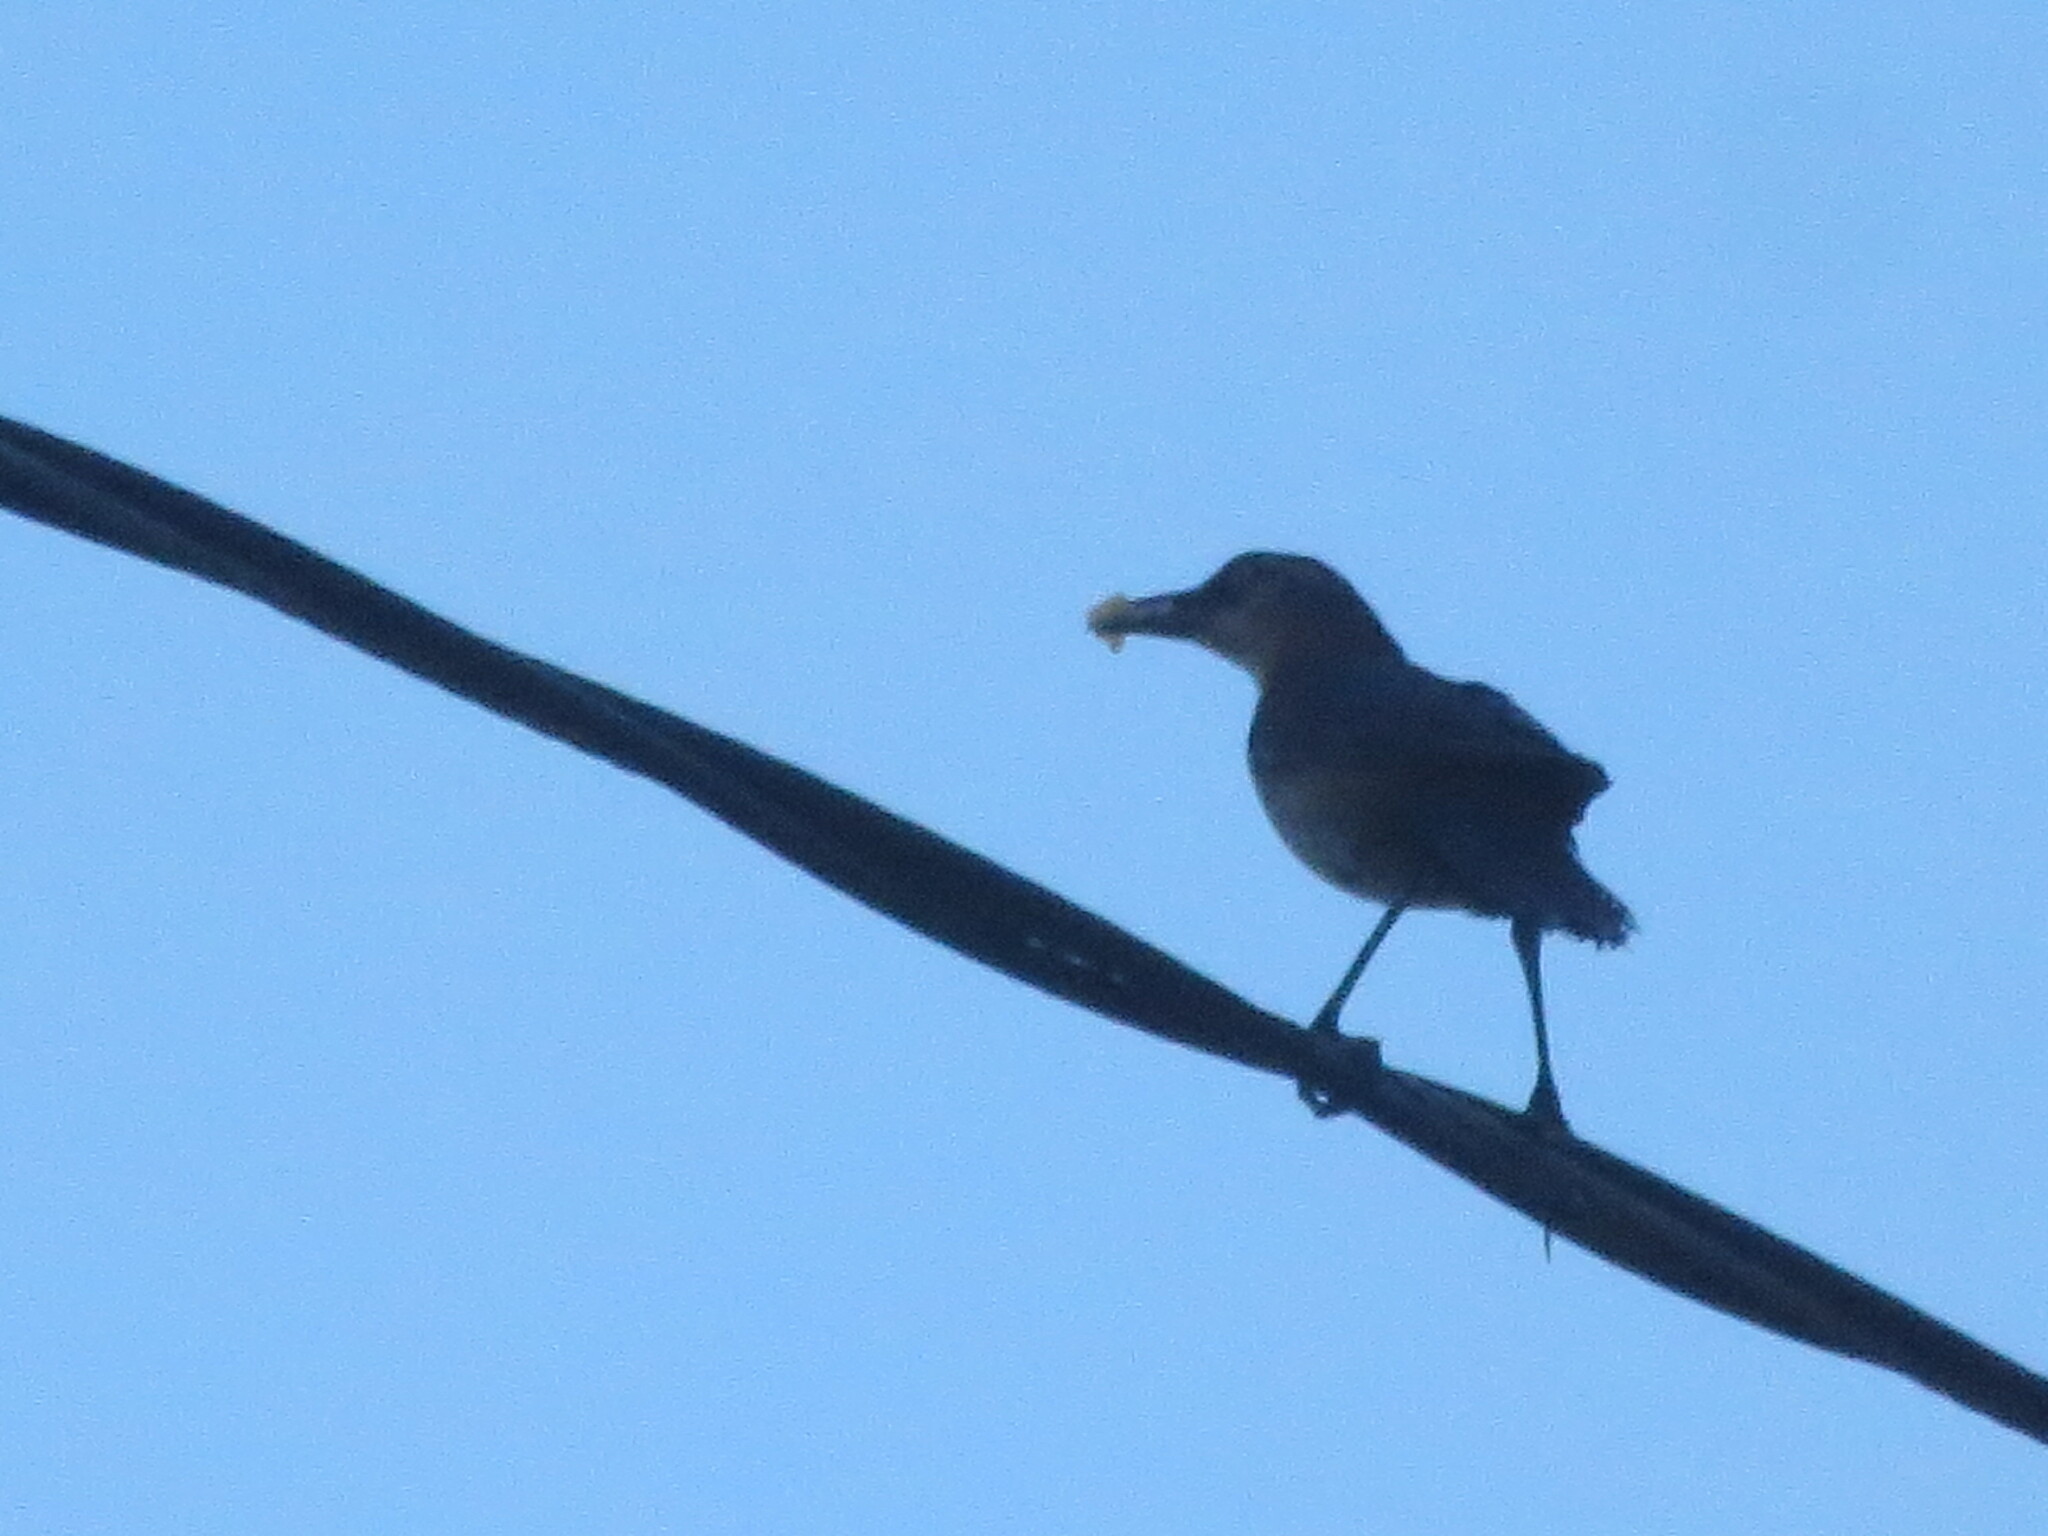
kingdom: Animalia
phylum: Chordata
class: Aves
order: Passeriformes
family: Icteridae
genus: Quiscalus
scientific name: Quiscalus major
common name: Boat-tailed grackle
